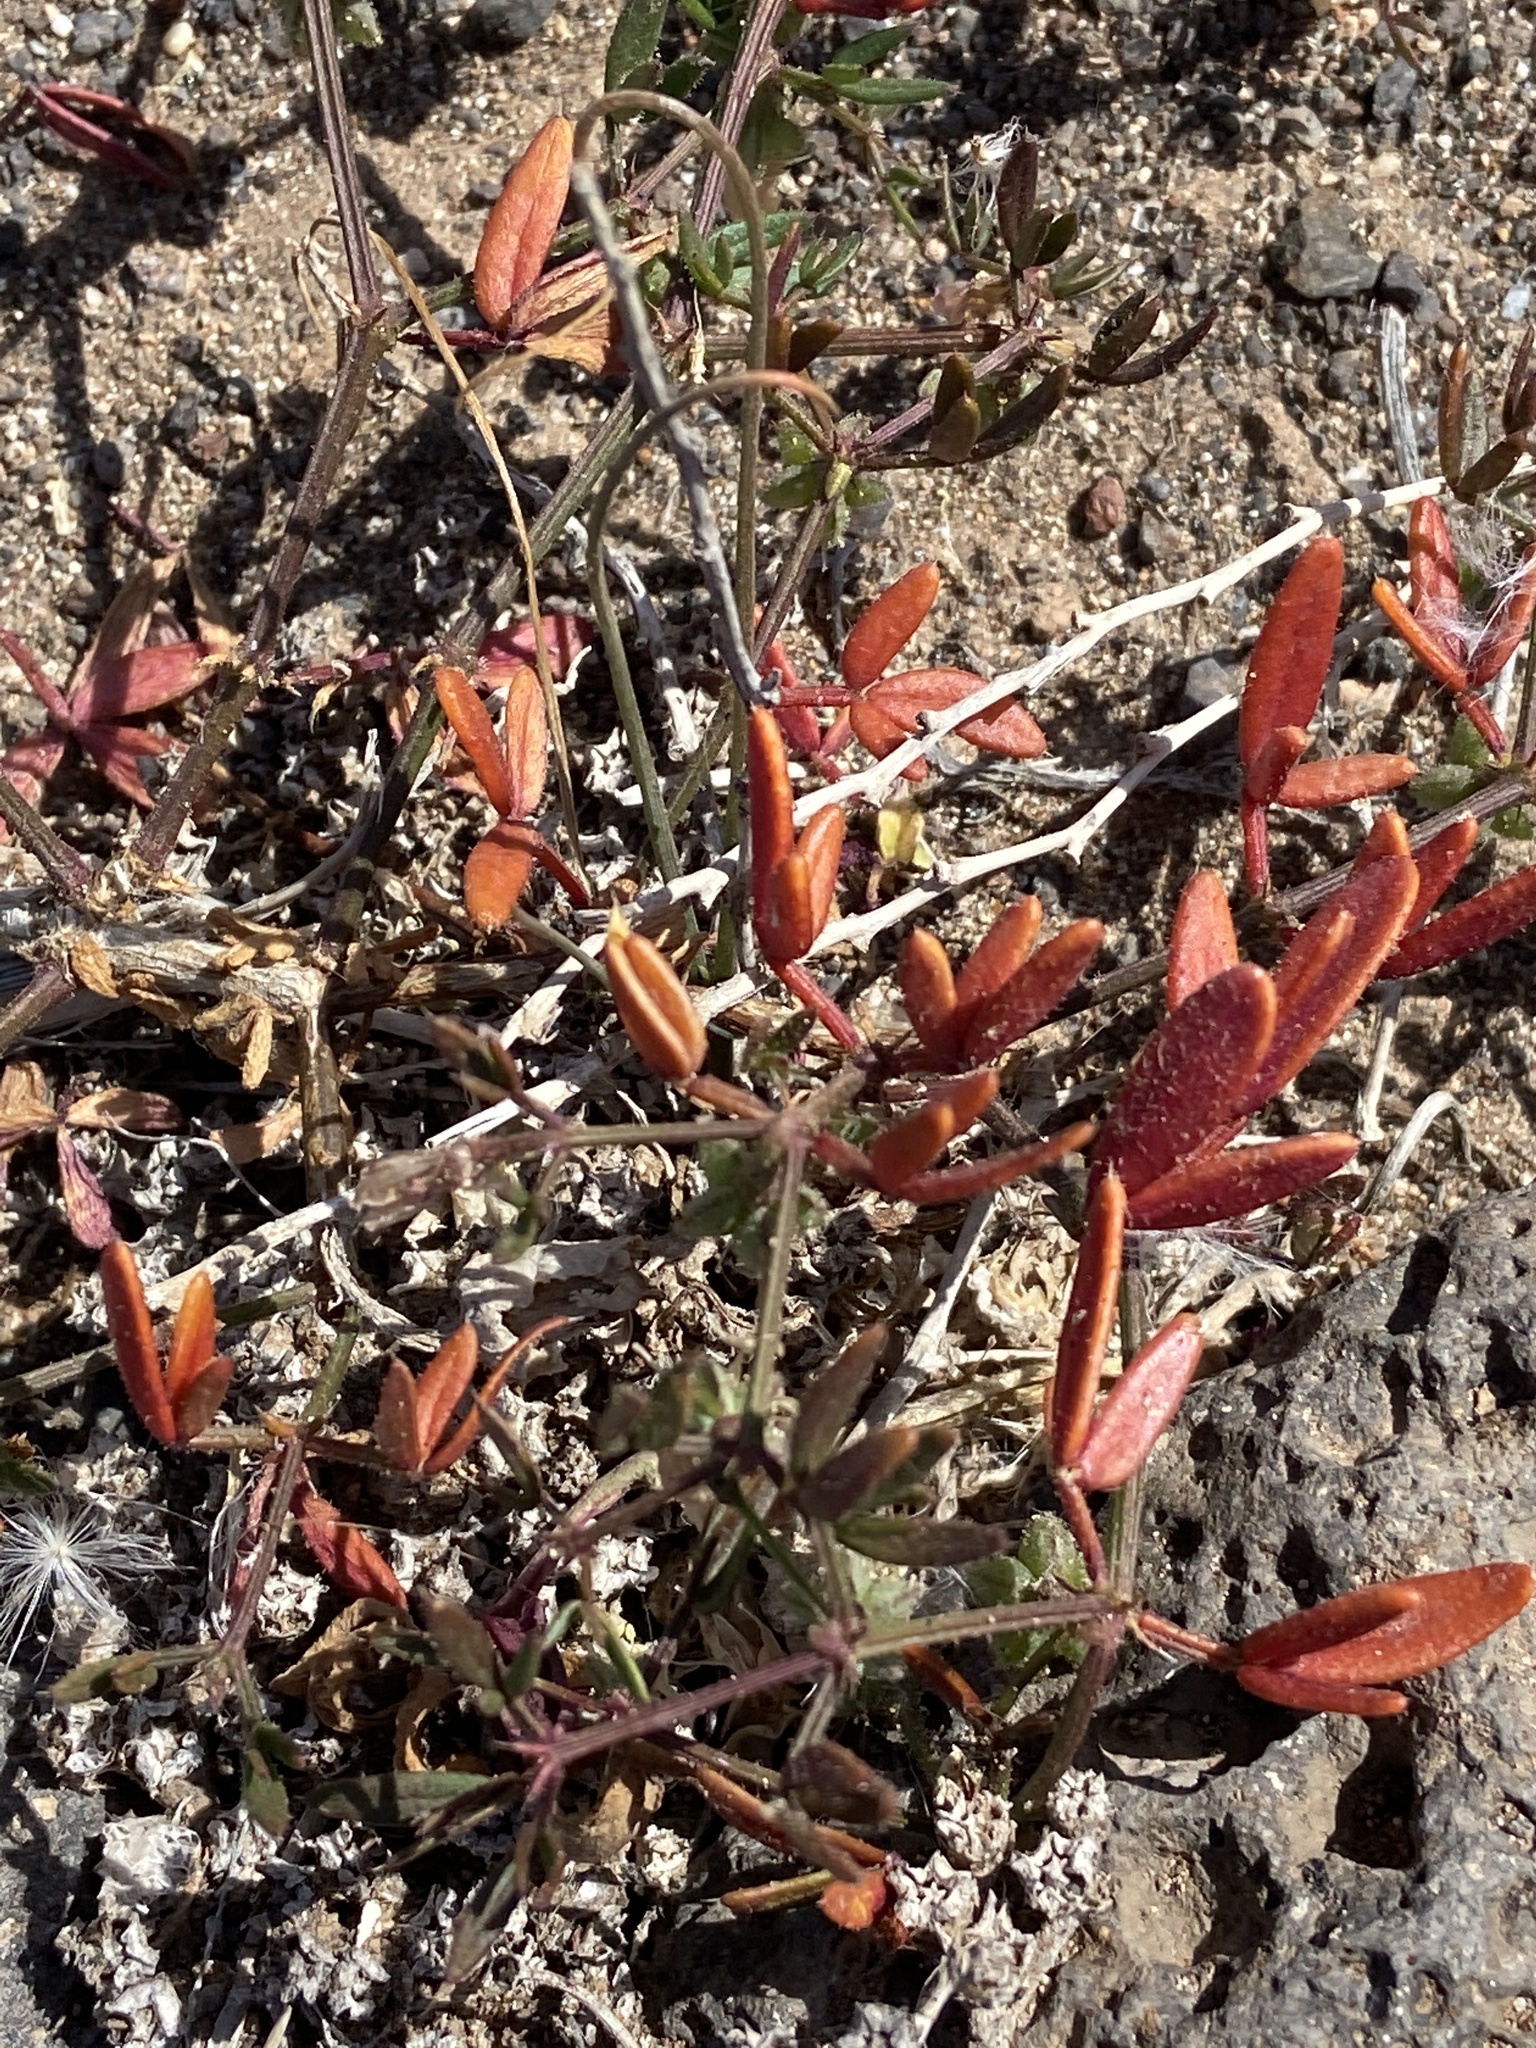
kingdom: Plantae
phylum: Tracheophyta
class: Magnoliopsida
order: Zygophyllales
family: Zygophyllaceae
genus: Fagonia
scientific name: Fagonia cretica
